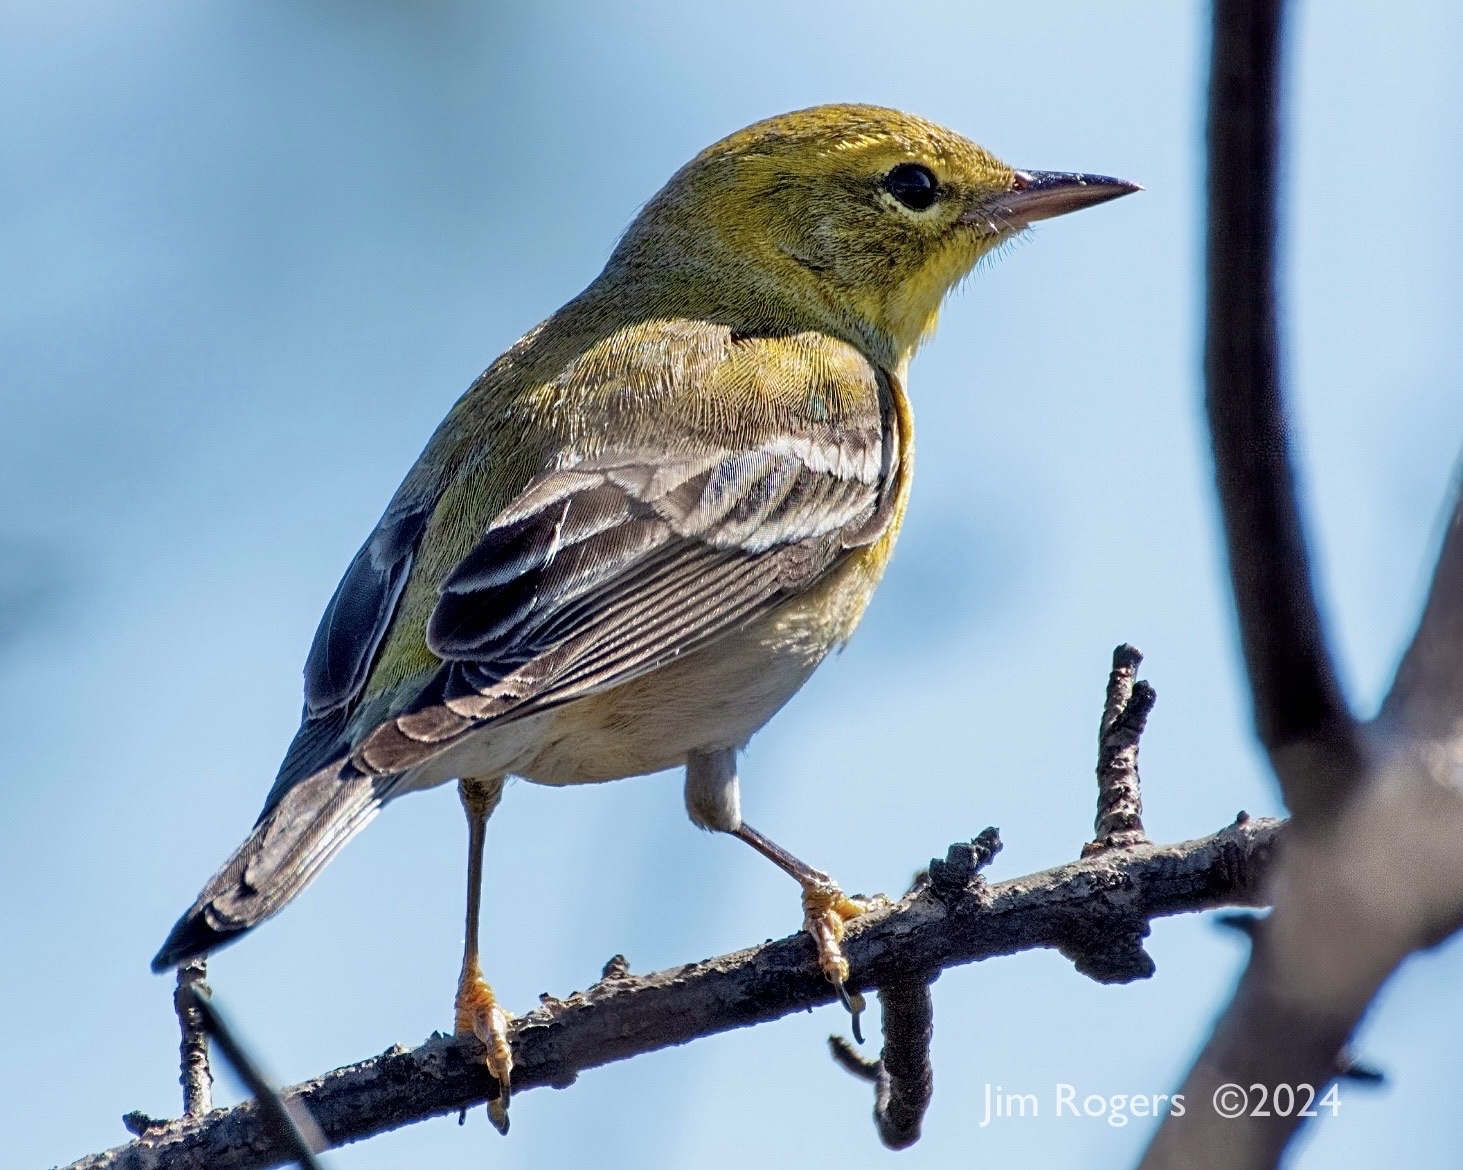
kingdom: Animalia
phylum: Chordata
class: Aves
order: Passeriformes
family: Parulidae
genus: Setophaga
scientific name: Setophaga pinus
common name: Pine warbler
